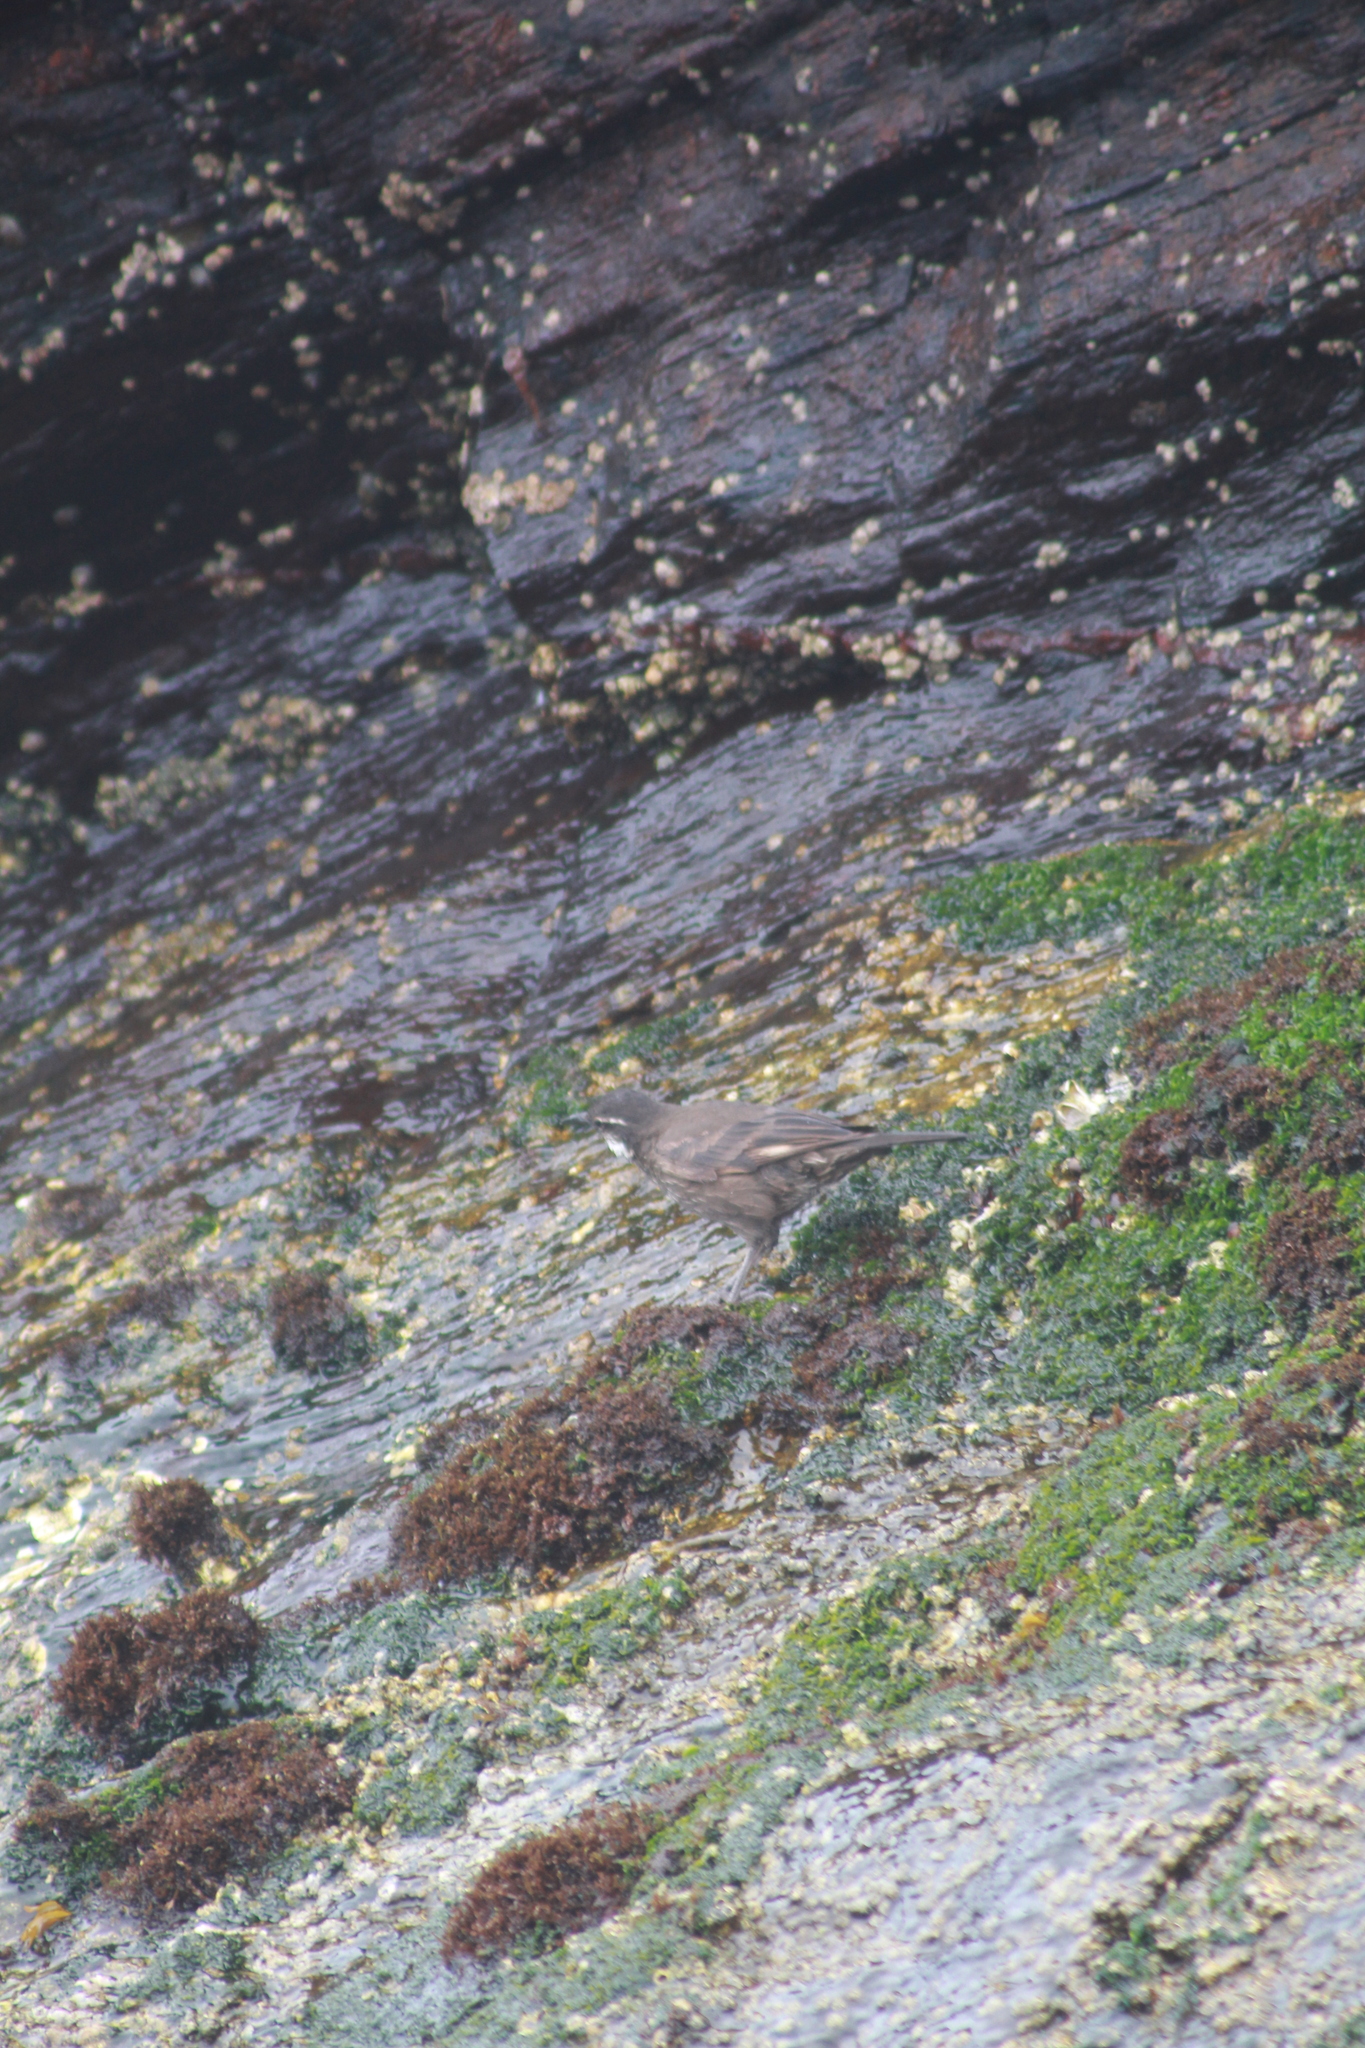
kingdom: Animalia
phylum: Chordata
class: Aves
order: Passeriformes
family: Furnariidae
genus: Cinclodes
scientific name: Cinclodes nigrofumosus
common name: Chilean seaside cinclodes
